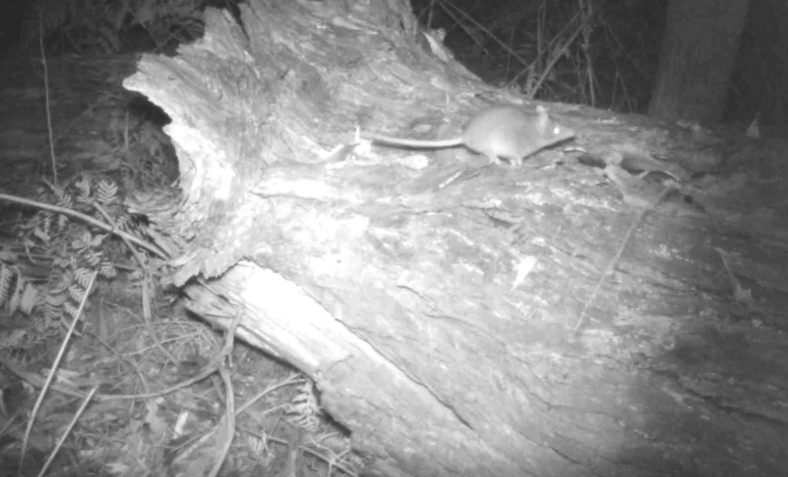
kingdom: Animalia
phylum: Chordata
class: Mammalia
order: Dasyuromorphia
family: Dasyuridae
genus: Antechinus
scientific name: Antechinus agilis
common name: Agile antechinus
